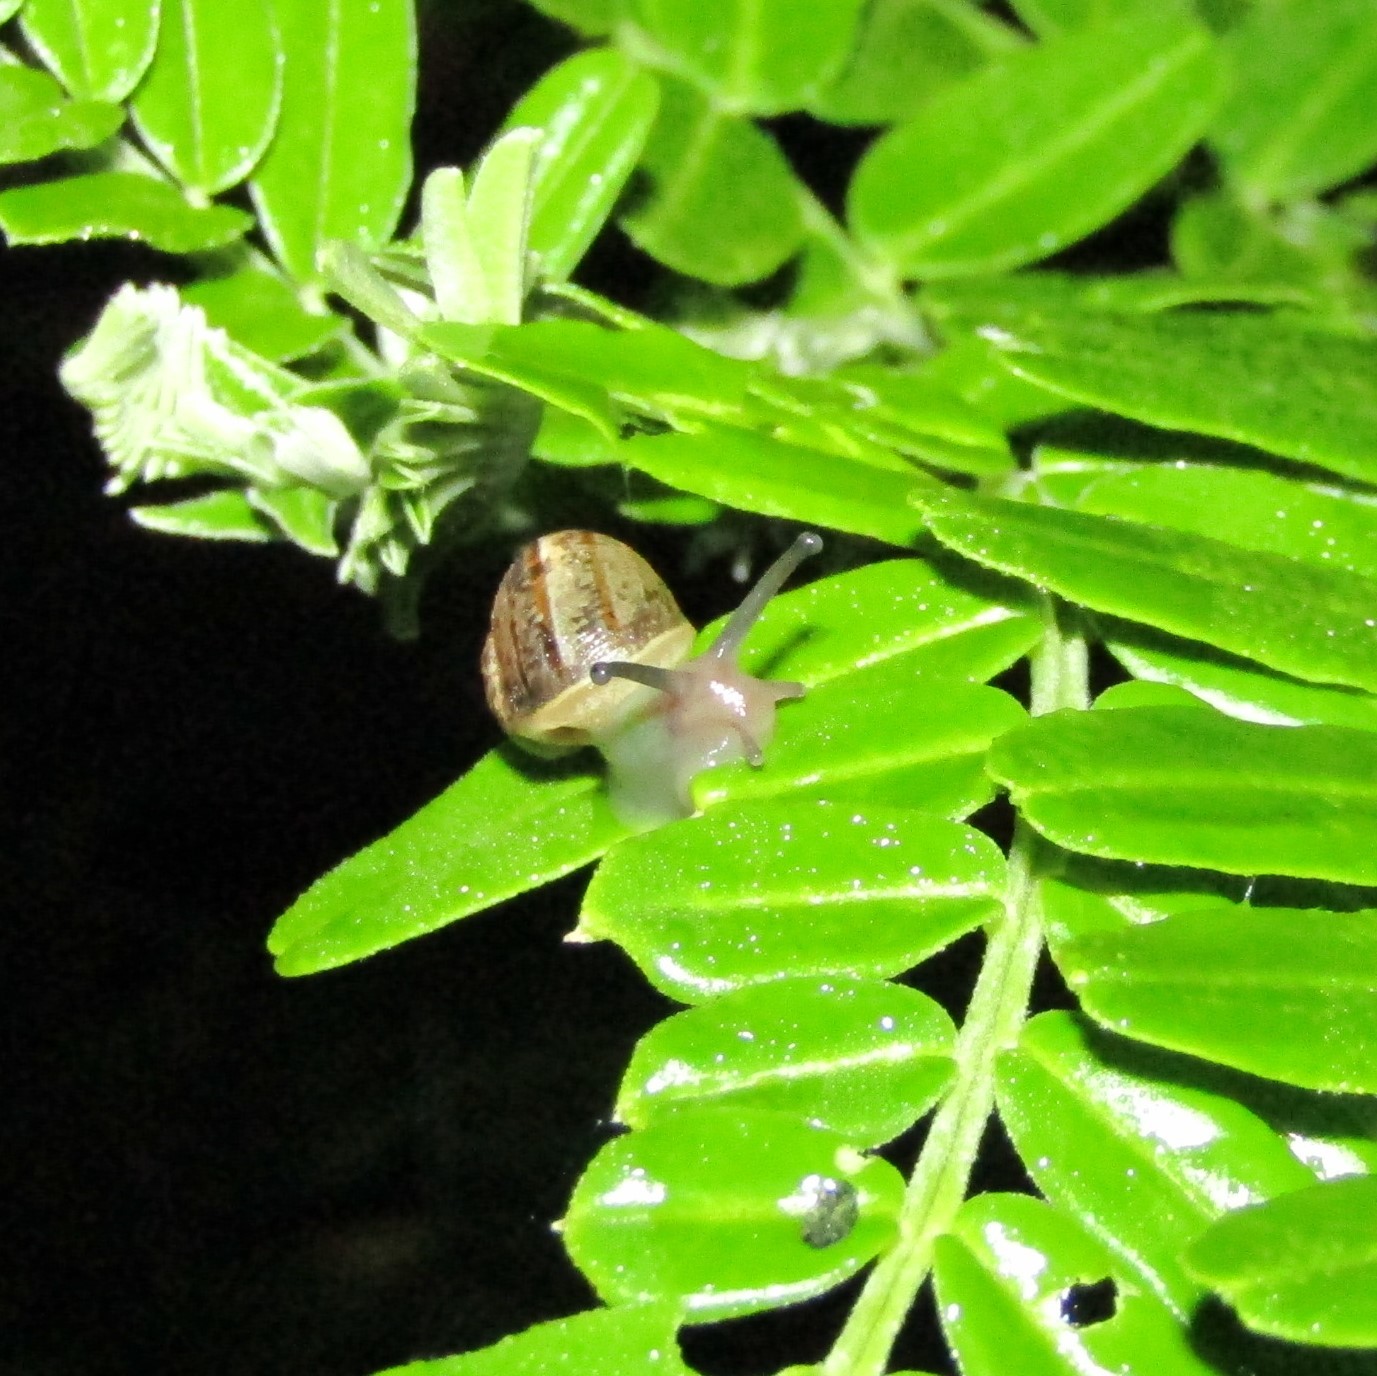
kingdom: Animalia
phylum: Mollusca
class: Gastropoda
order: Stylommatophora
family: Helicidae
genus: Cornu
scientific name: Cornu aspersum
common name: Brown garden snail
